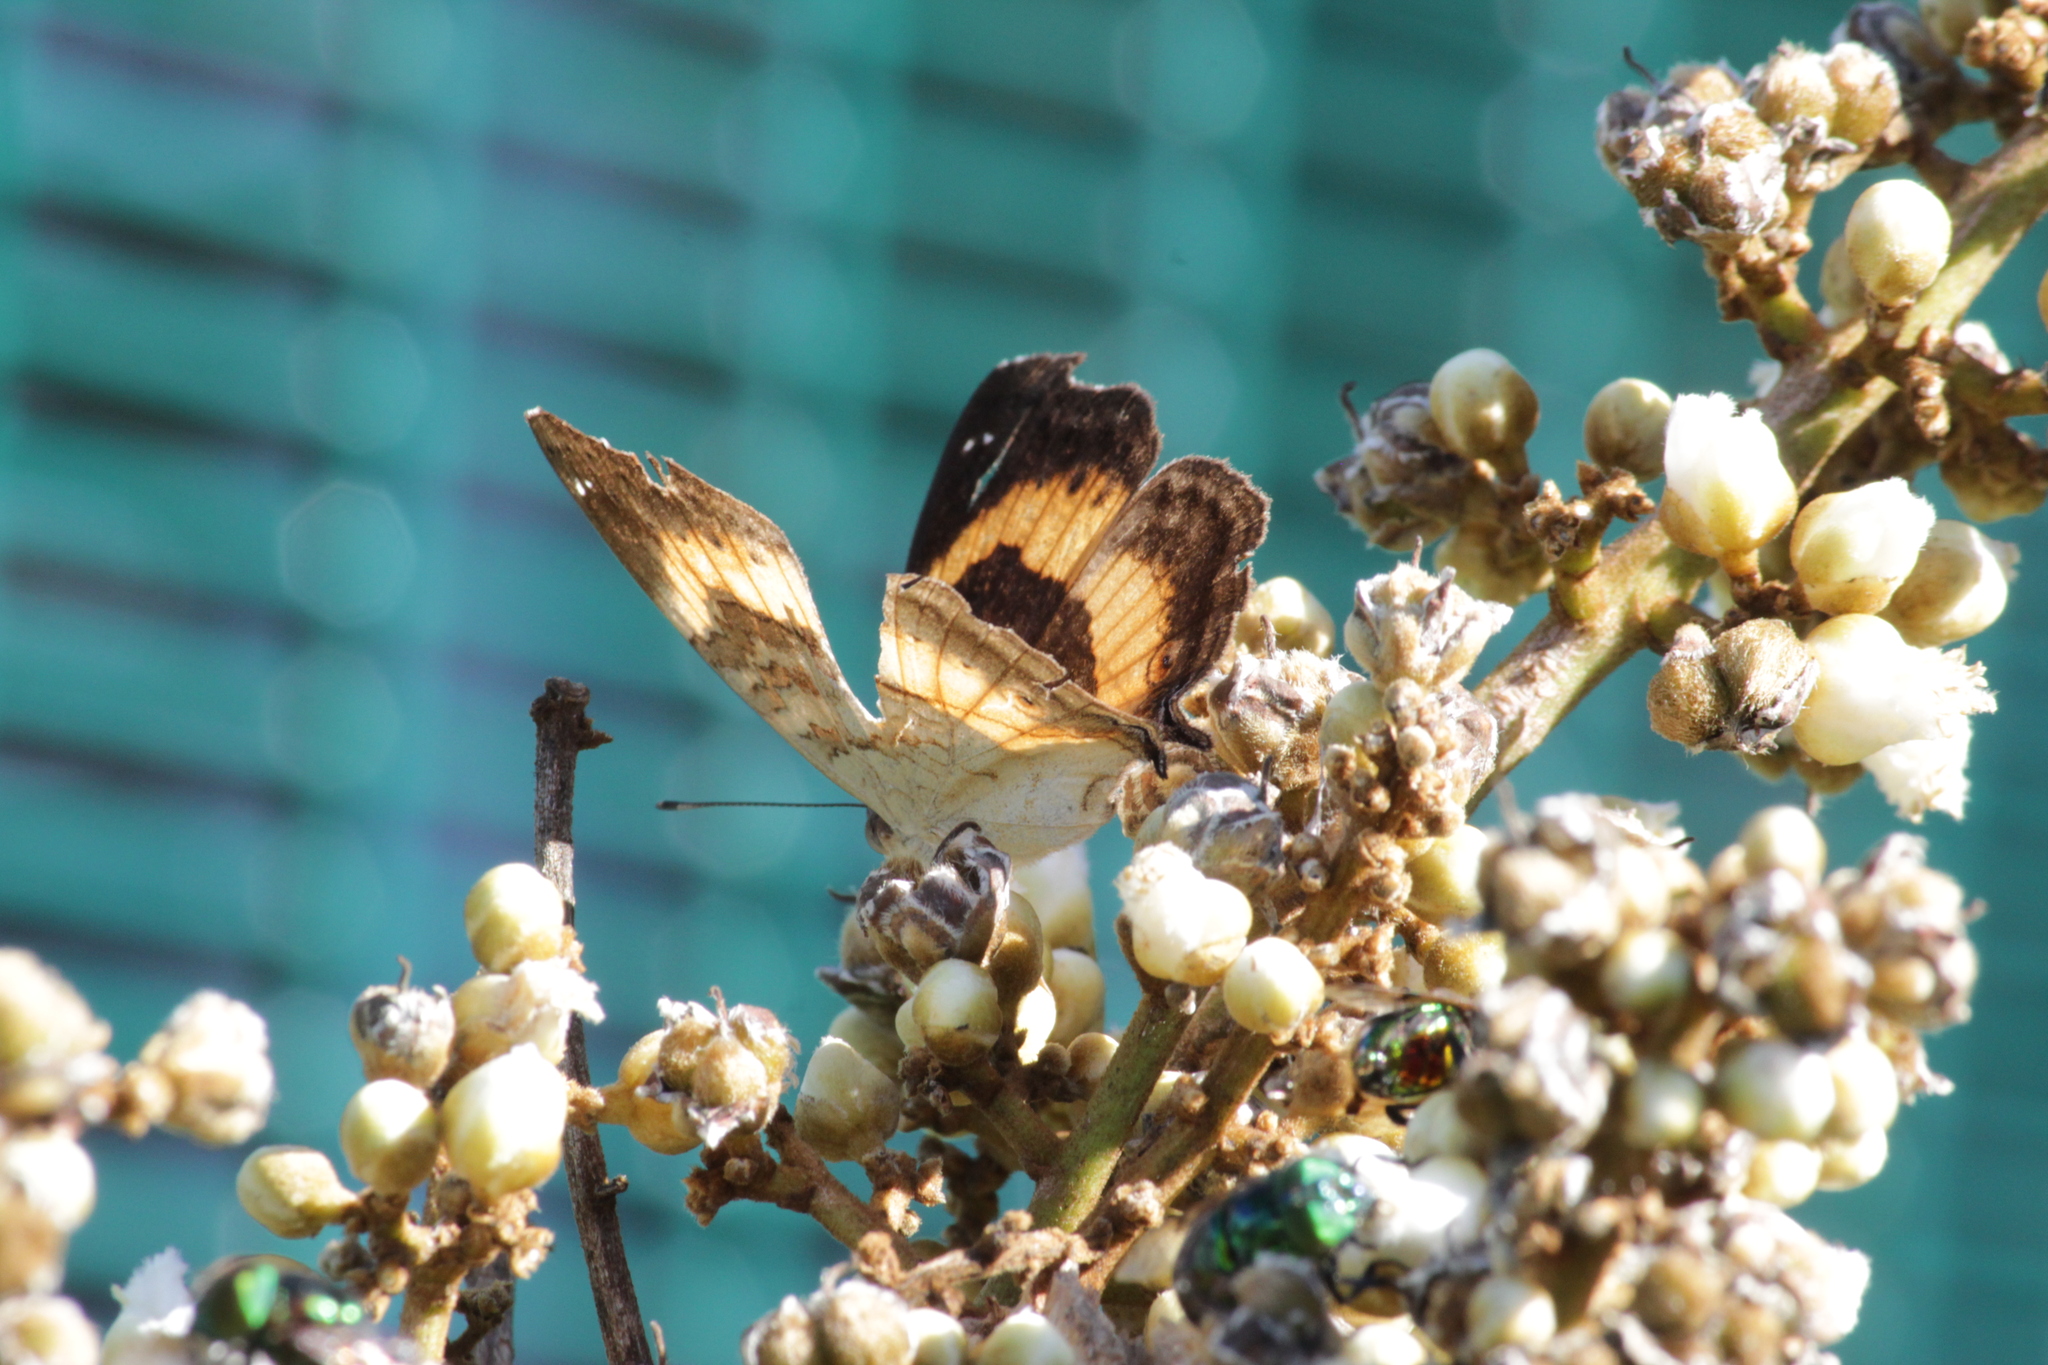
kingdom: Animalia
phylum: Arthropoda
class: Insecta
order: Lepidoptera
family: Nymphalidae
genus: Junonia
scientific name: Junonia terea
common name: Soldier pansy
